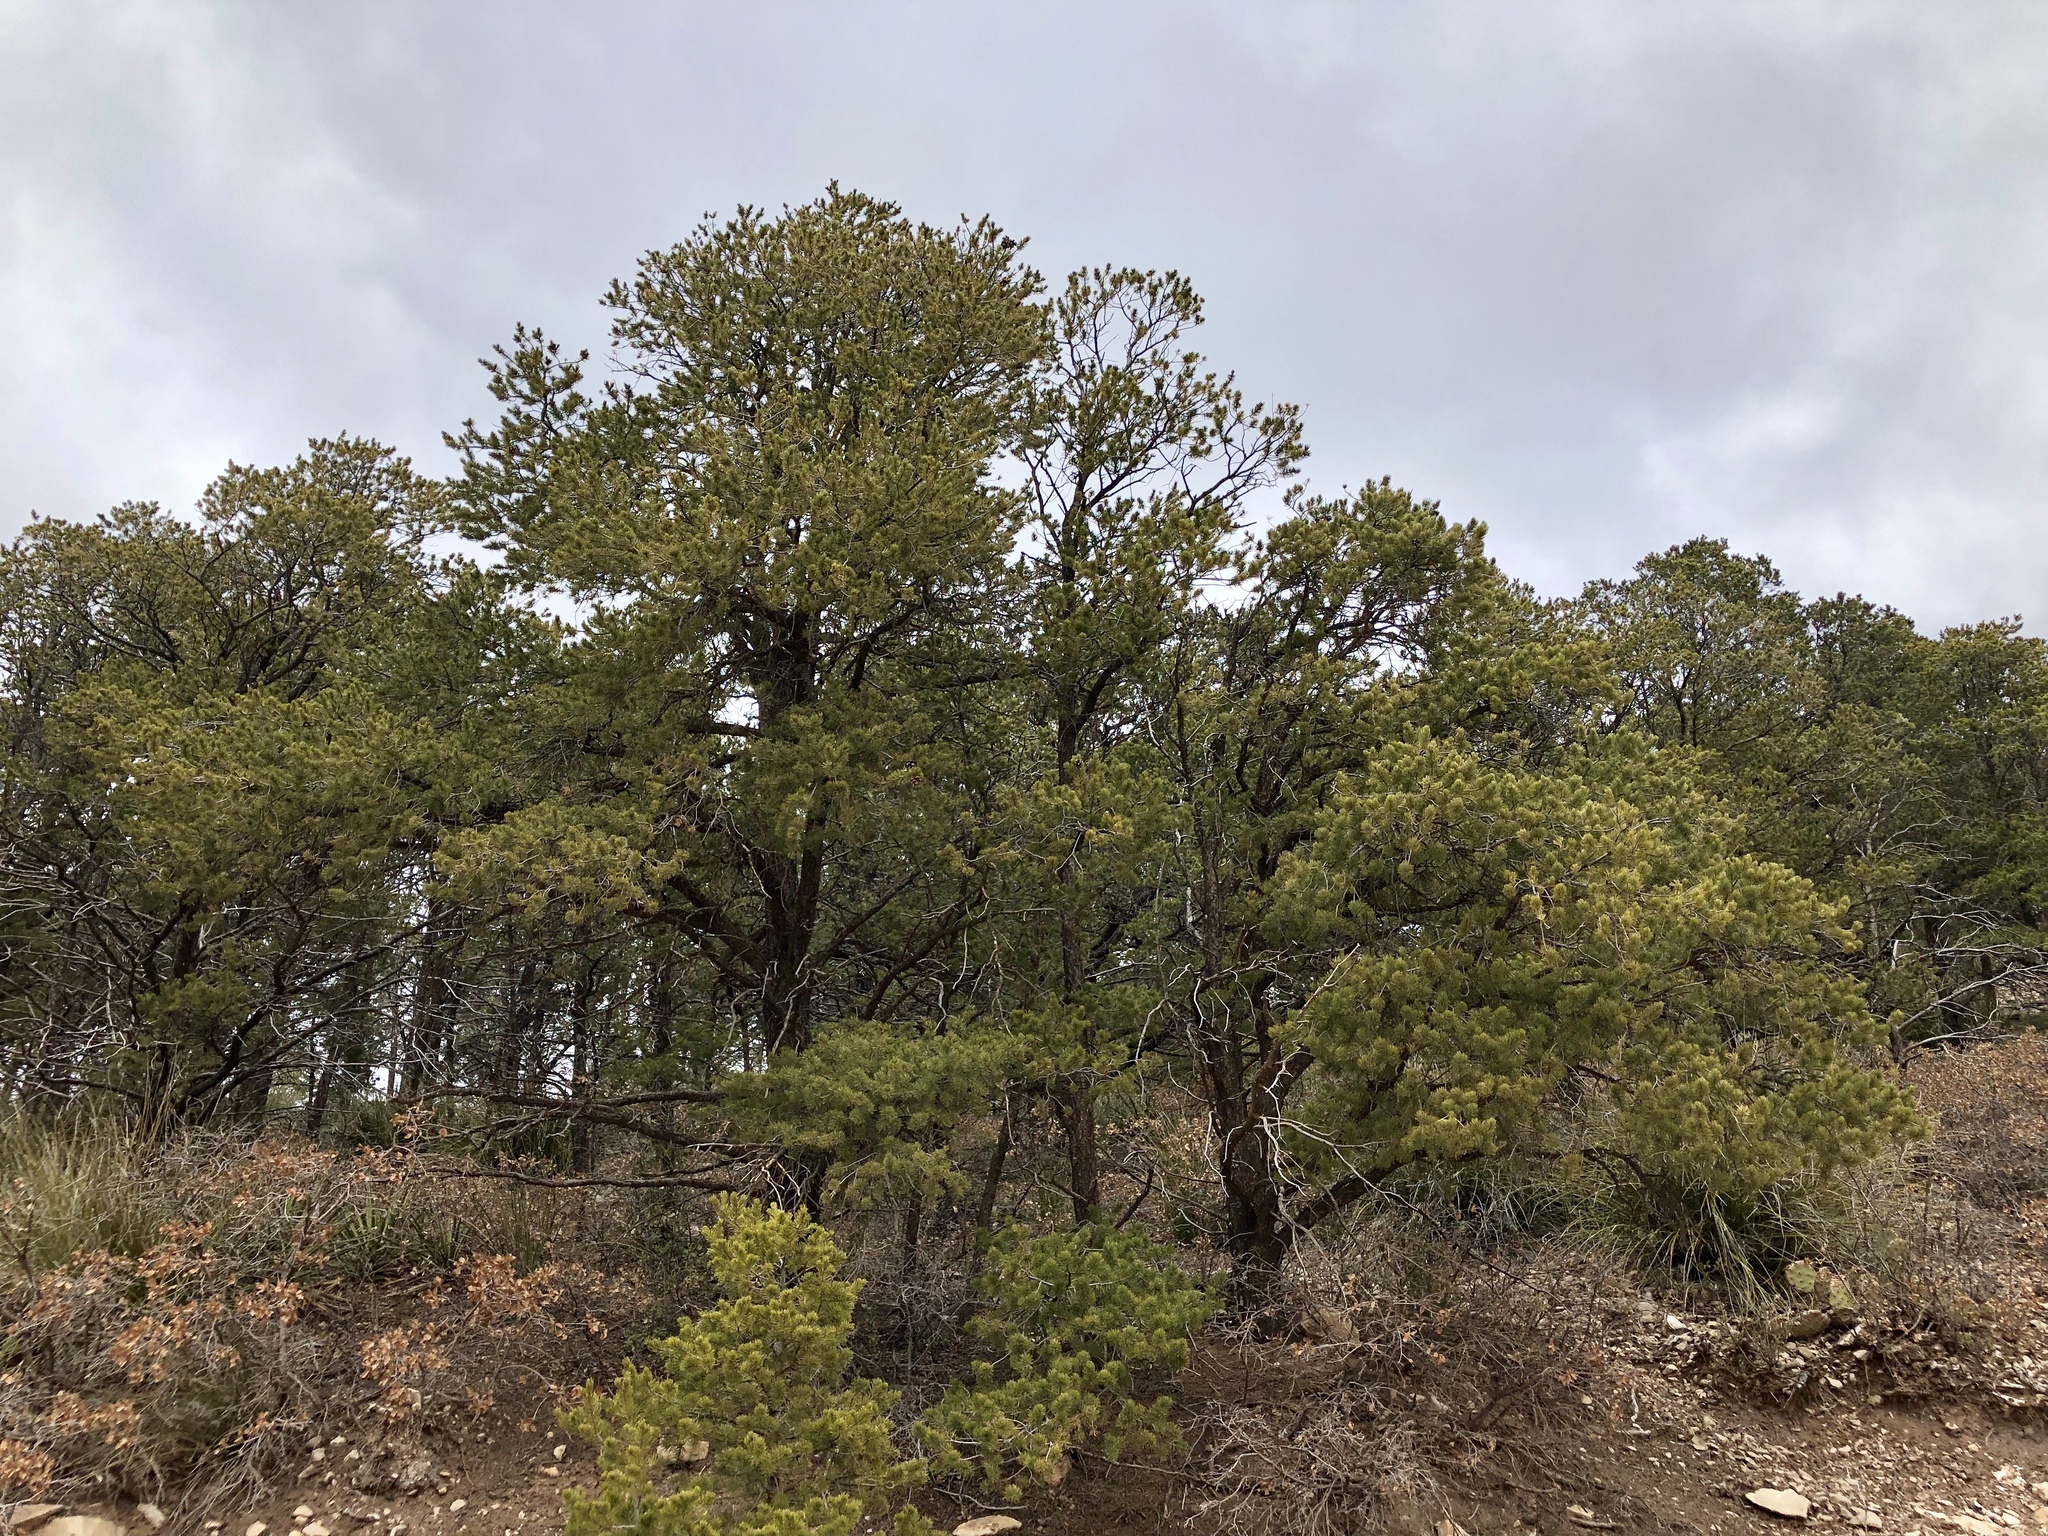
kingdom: Plantae
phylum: Tracheophyta
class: Pinopsida
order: Pinales
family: Pinaceae
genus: Pinus
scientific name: Pinus edulis
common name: Colorado pinyon
